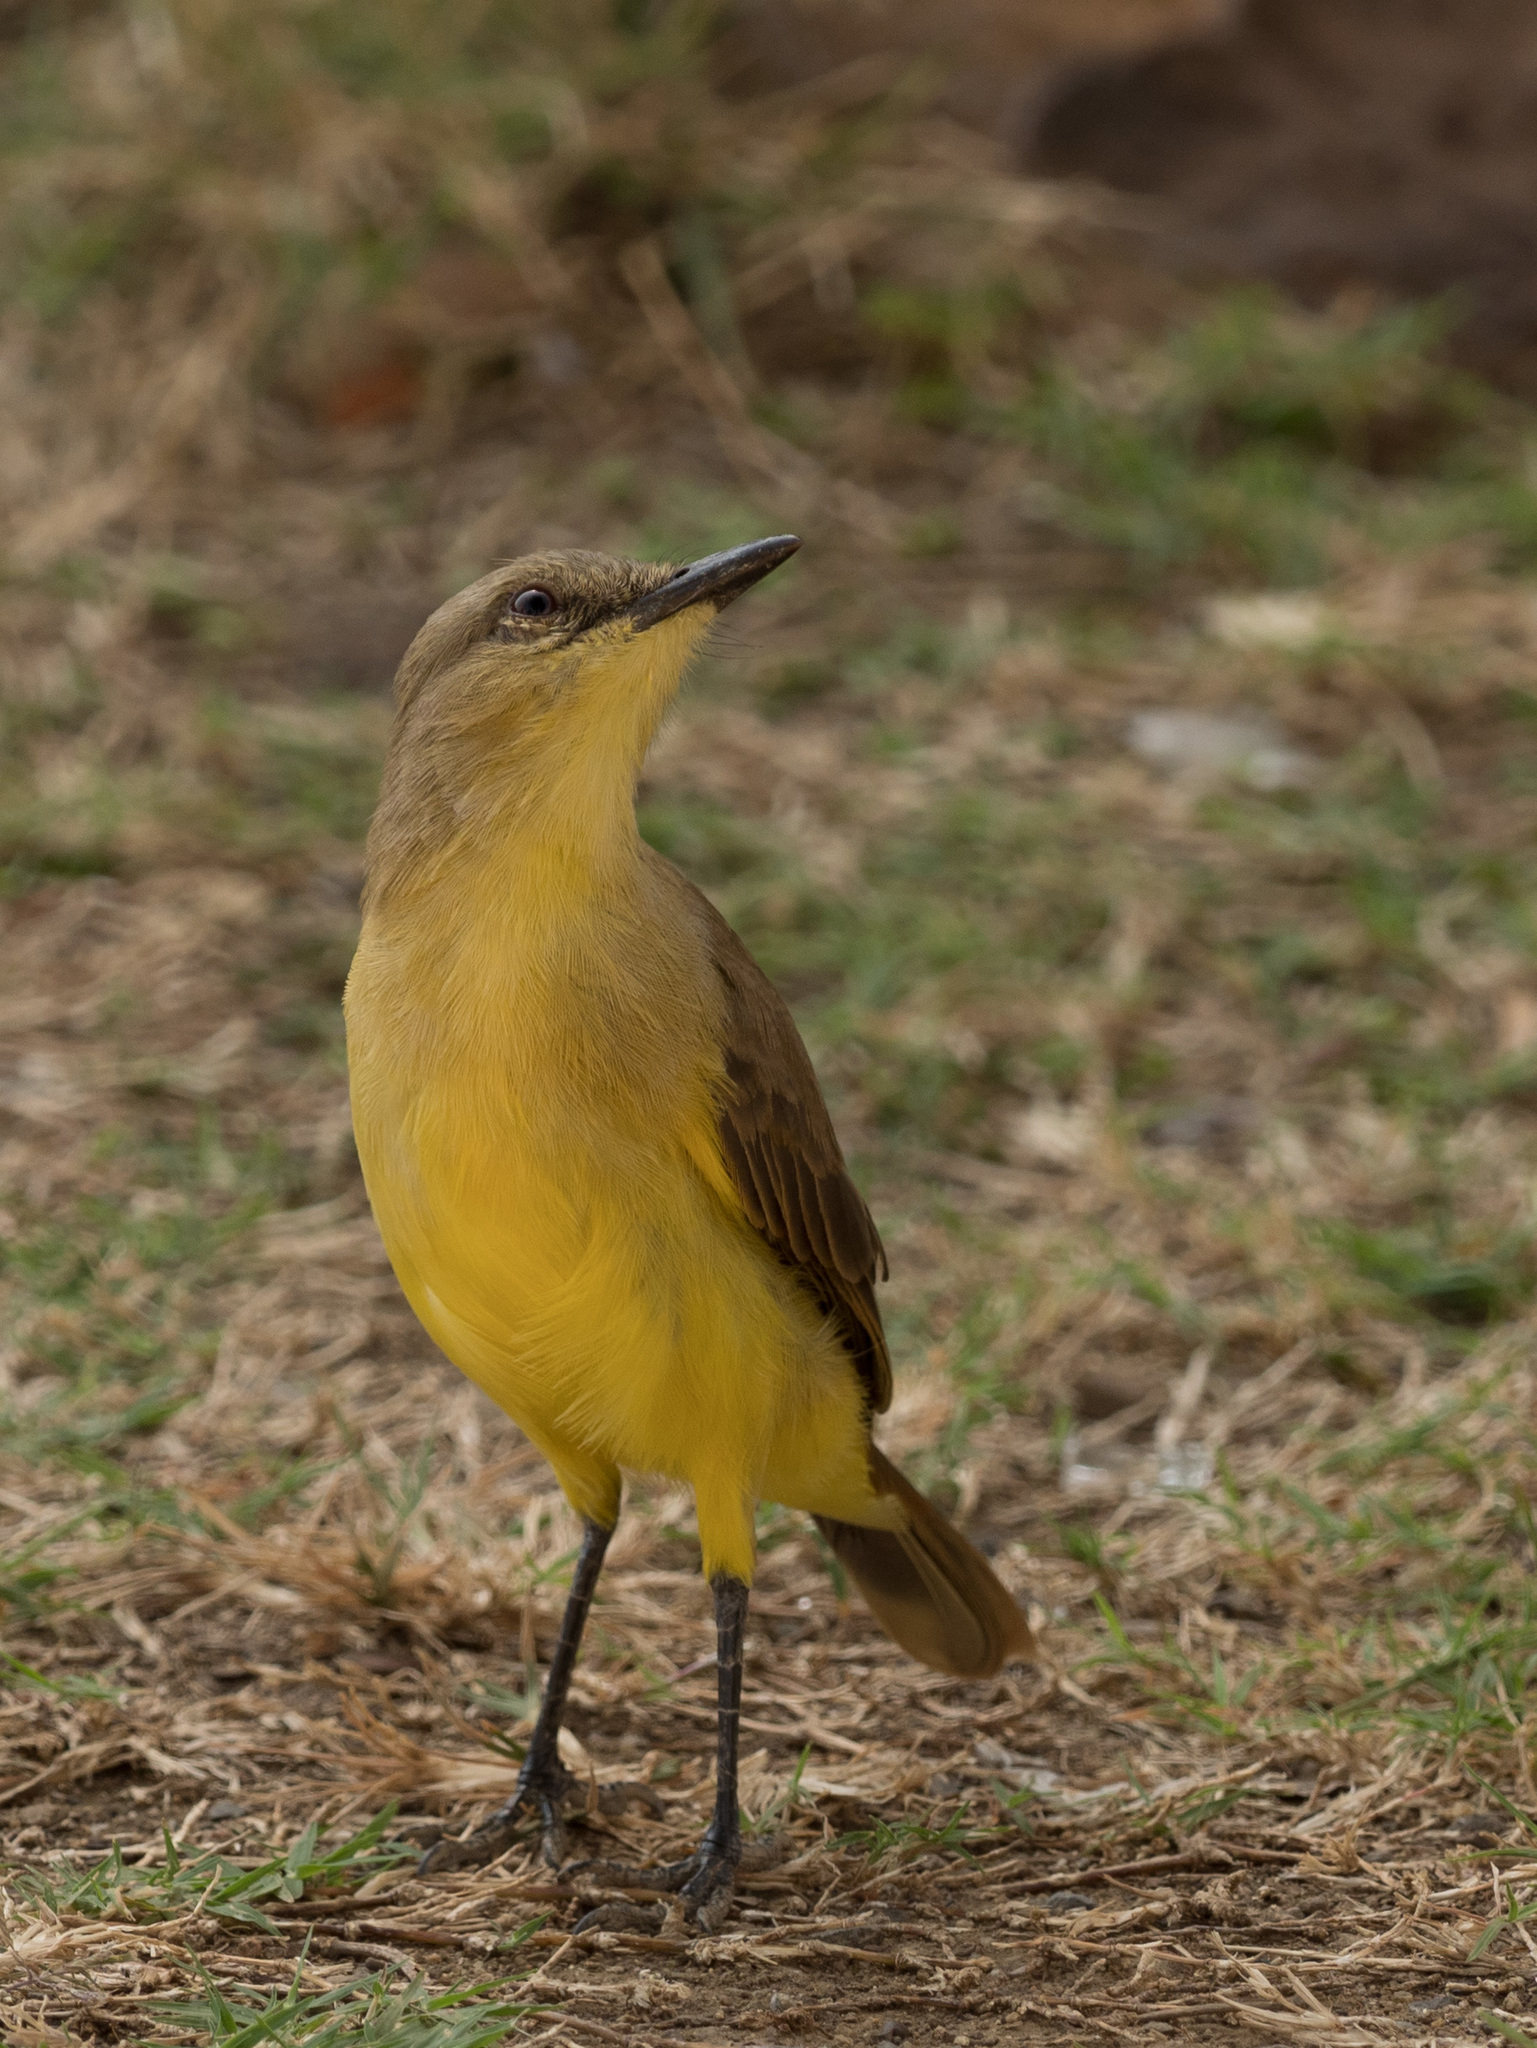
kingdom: Animalia
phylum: Chordata
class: Aves
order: Passeriformes
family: Tyrannidae
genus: Machetornis
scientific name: Machetornis rixosa
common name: Cattle tyrant
